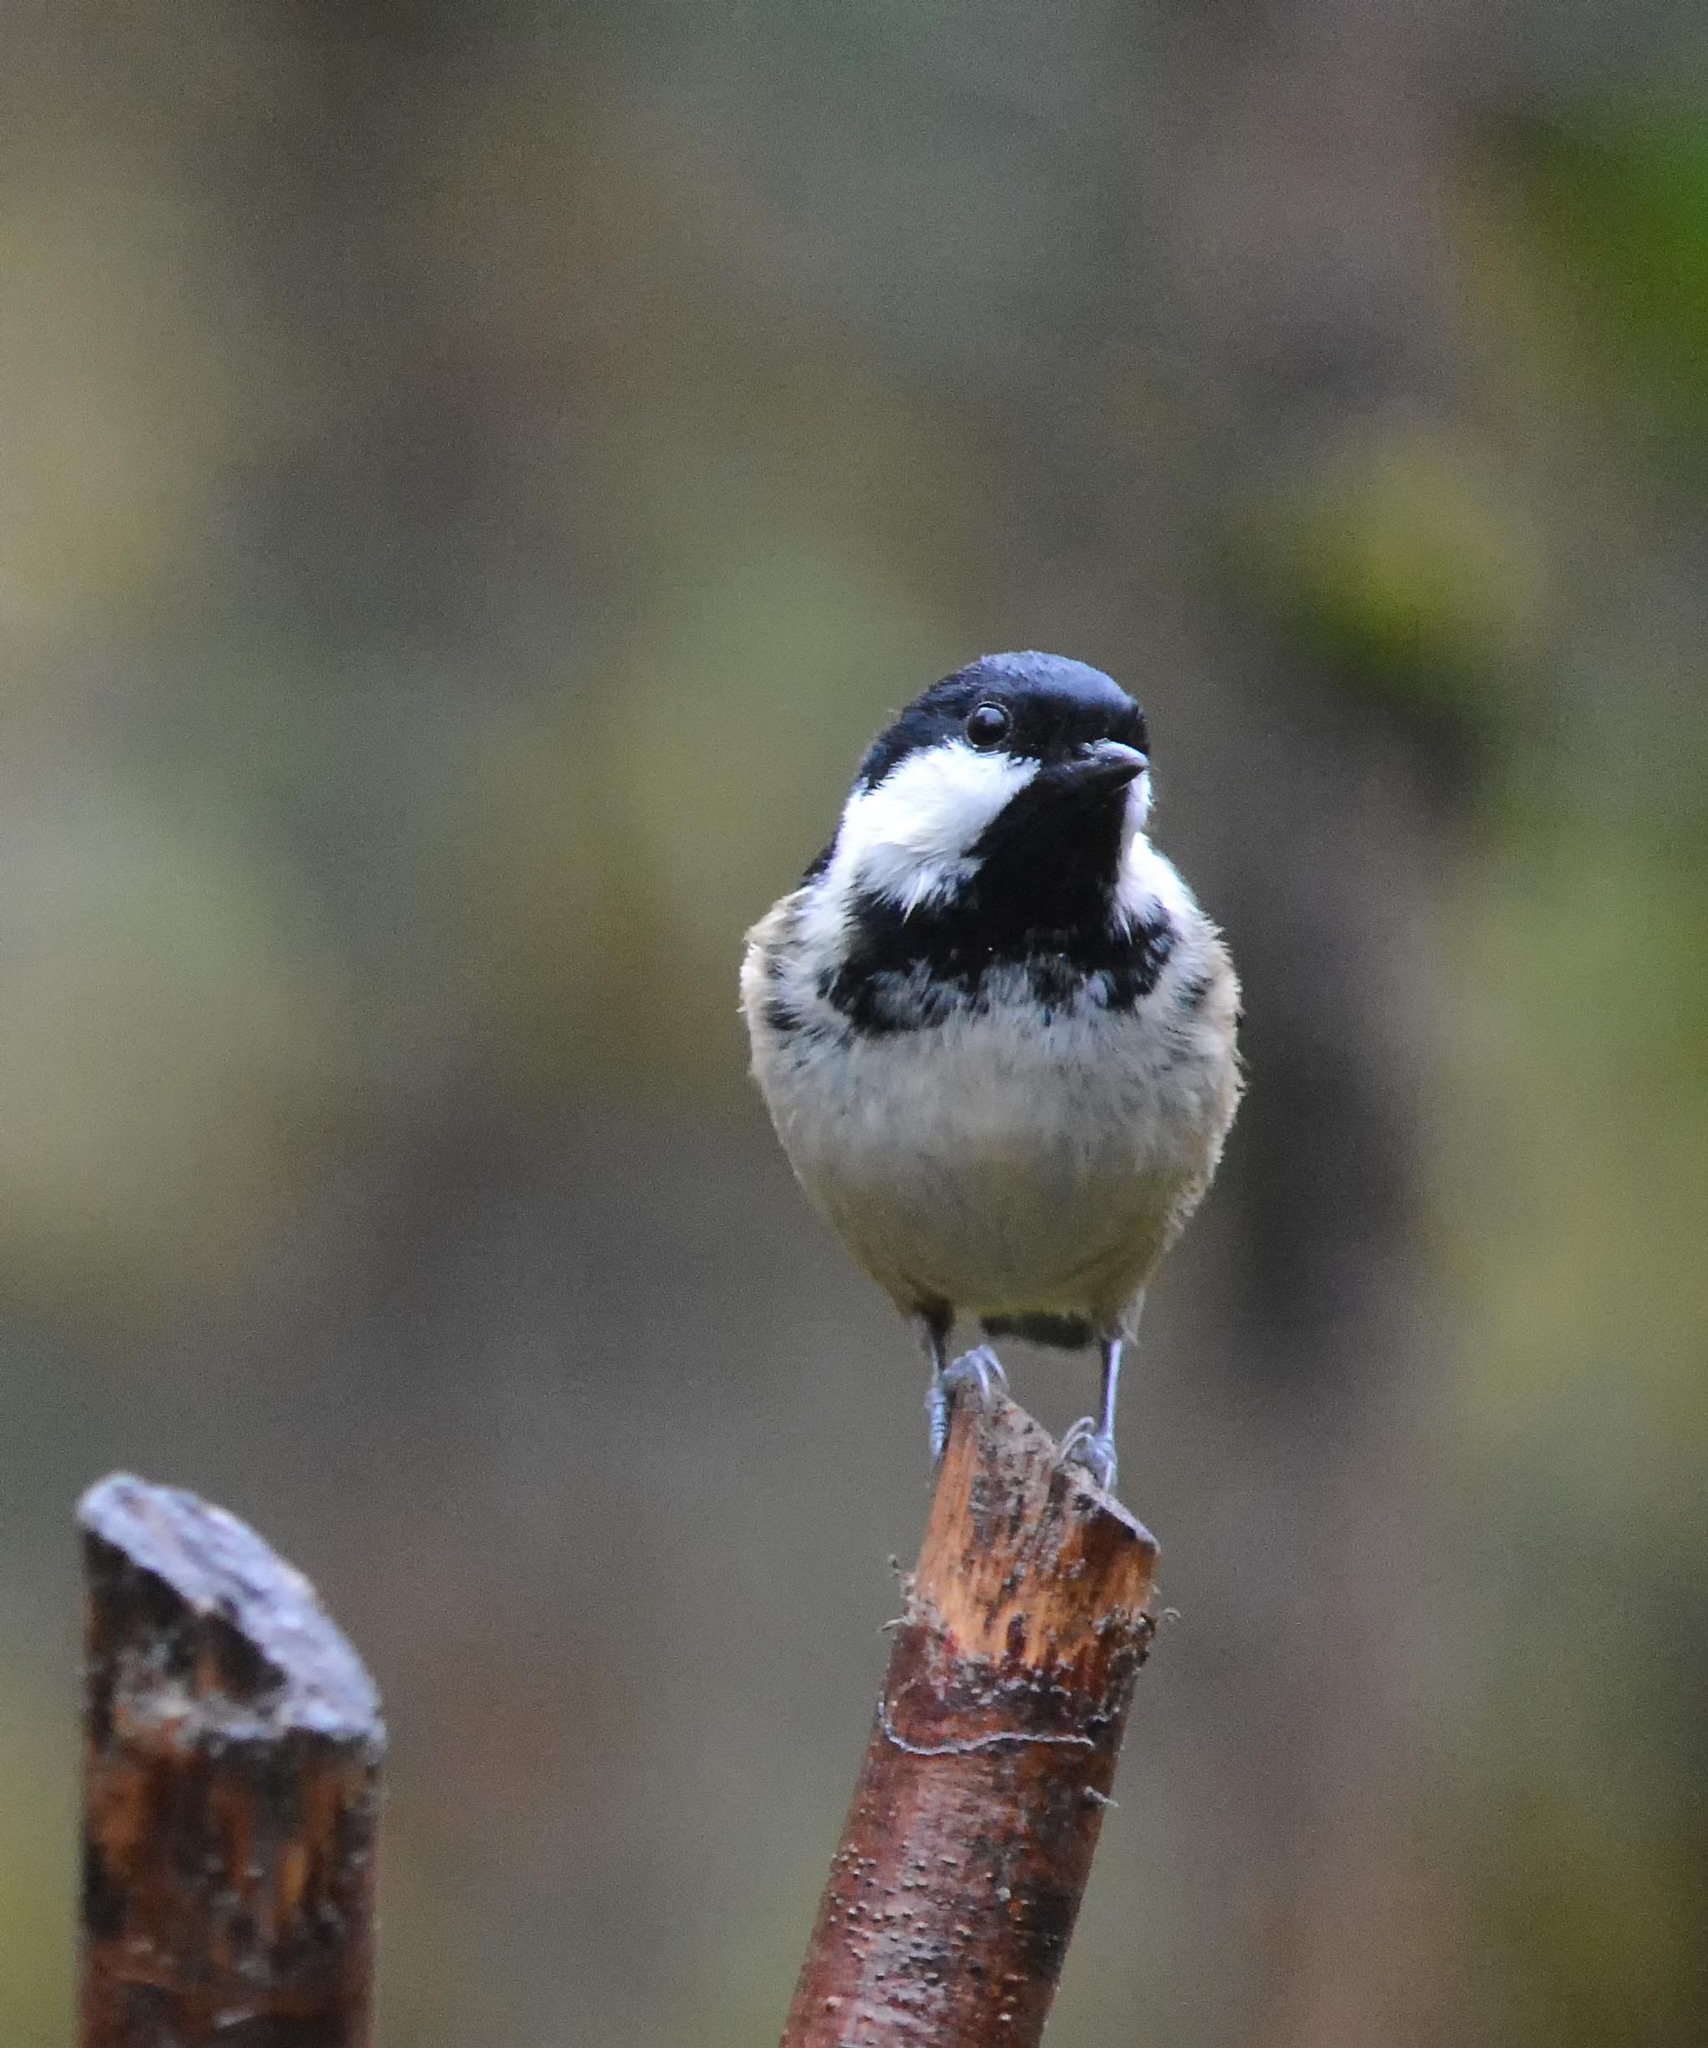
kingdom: Animalia
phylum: Chordata
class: Aves
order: Passeriformes
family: Paridae
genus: Periparus
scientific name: Periparus ater
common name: Coal tit
